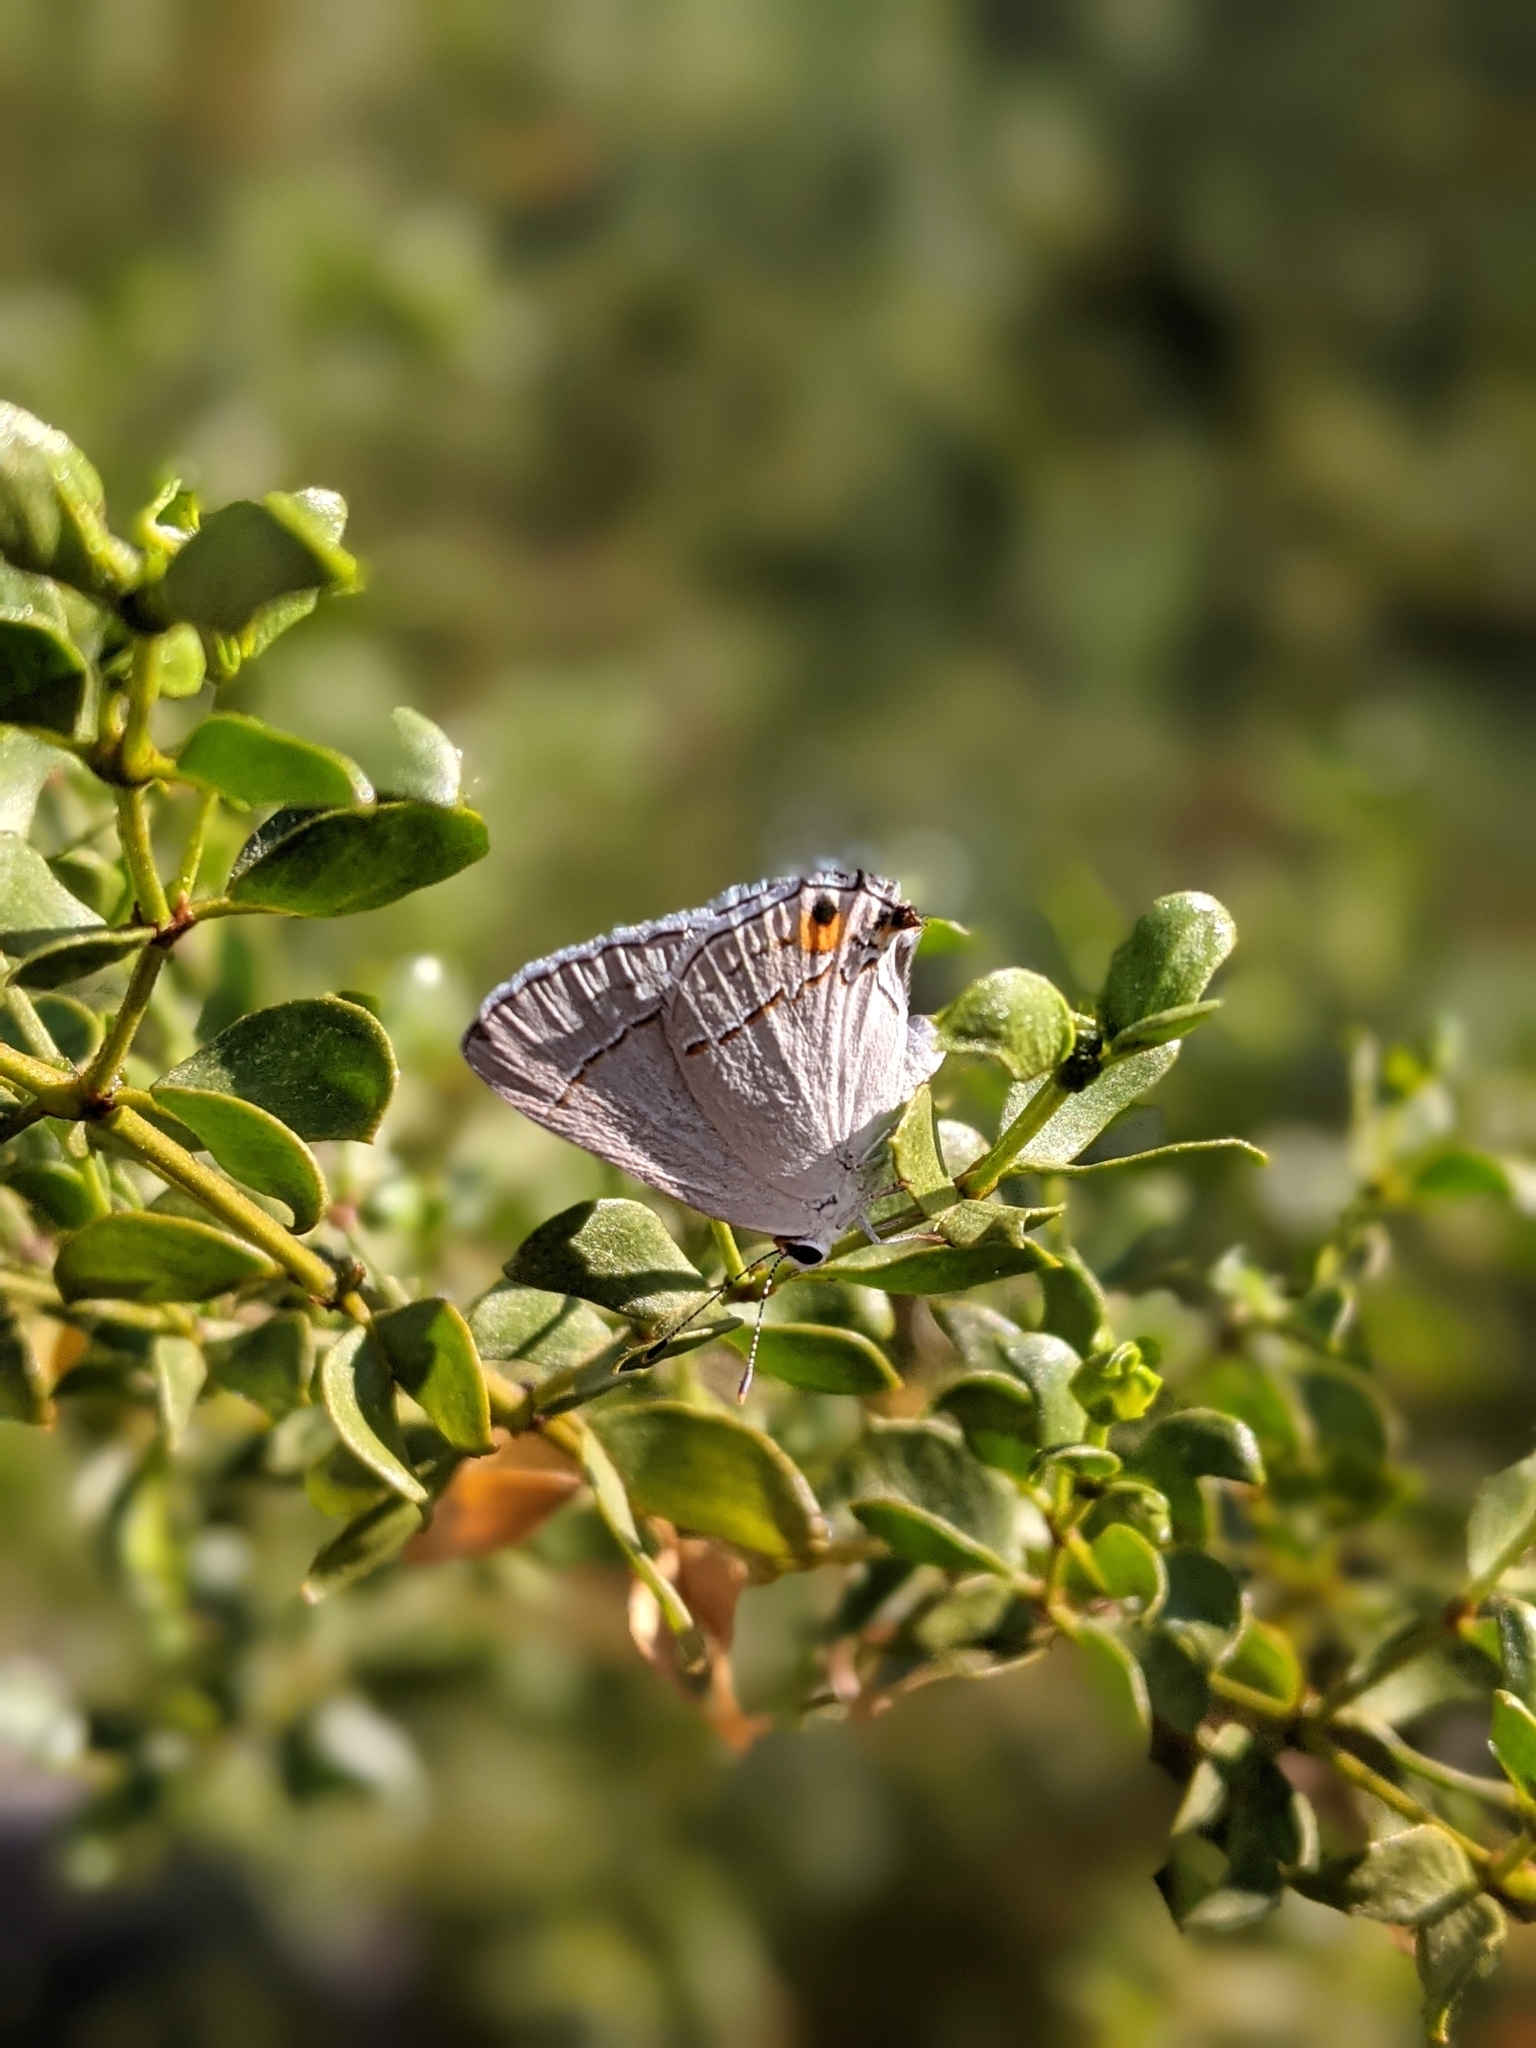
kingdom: Animalia
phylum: Arthropoda
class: Insecta
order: Lepidoptera
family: Lycaenidae
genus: Strymon
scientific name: Strymon melinus
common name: Gray hairstreak
